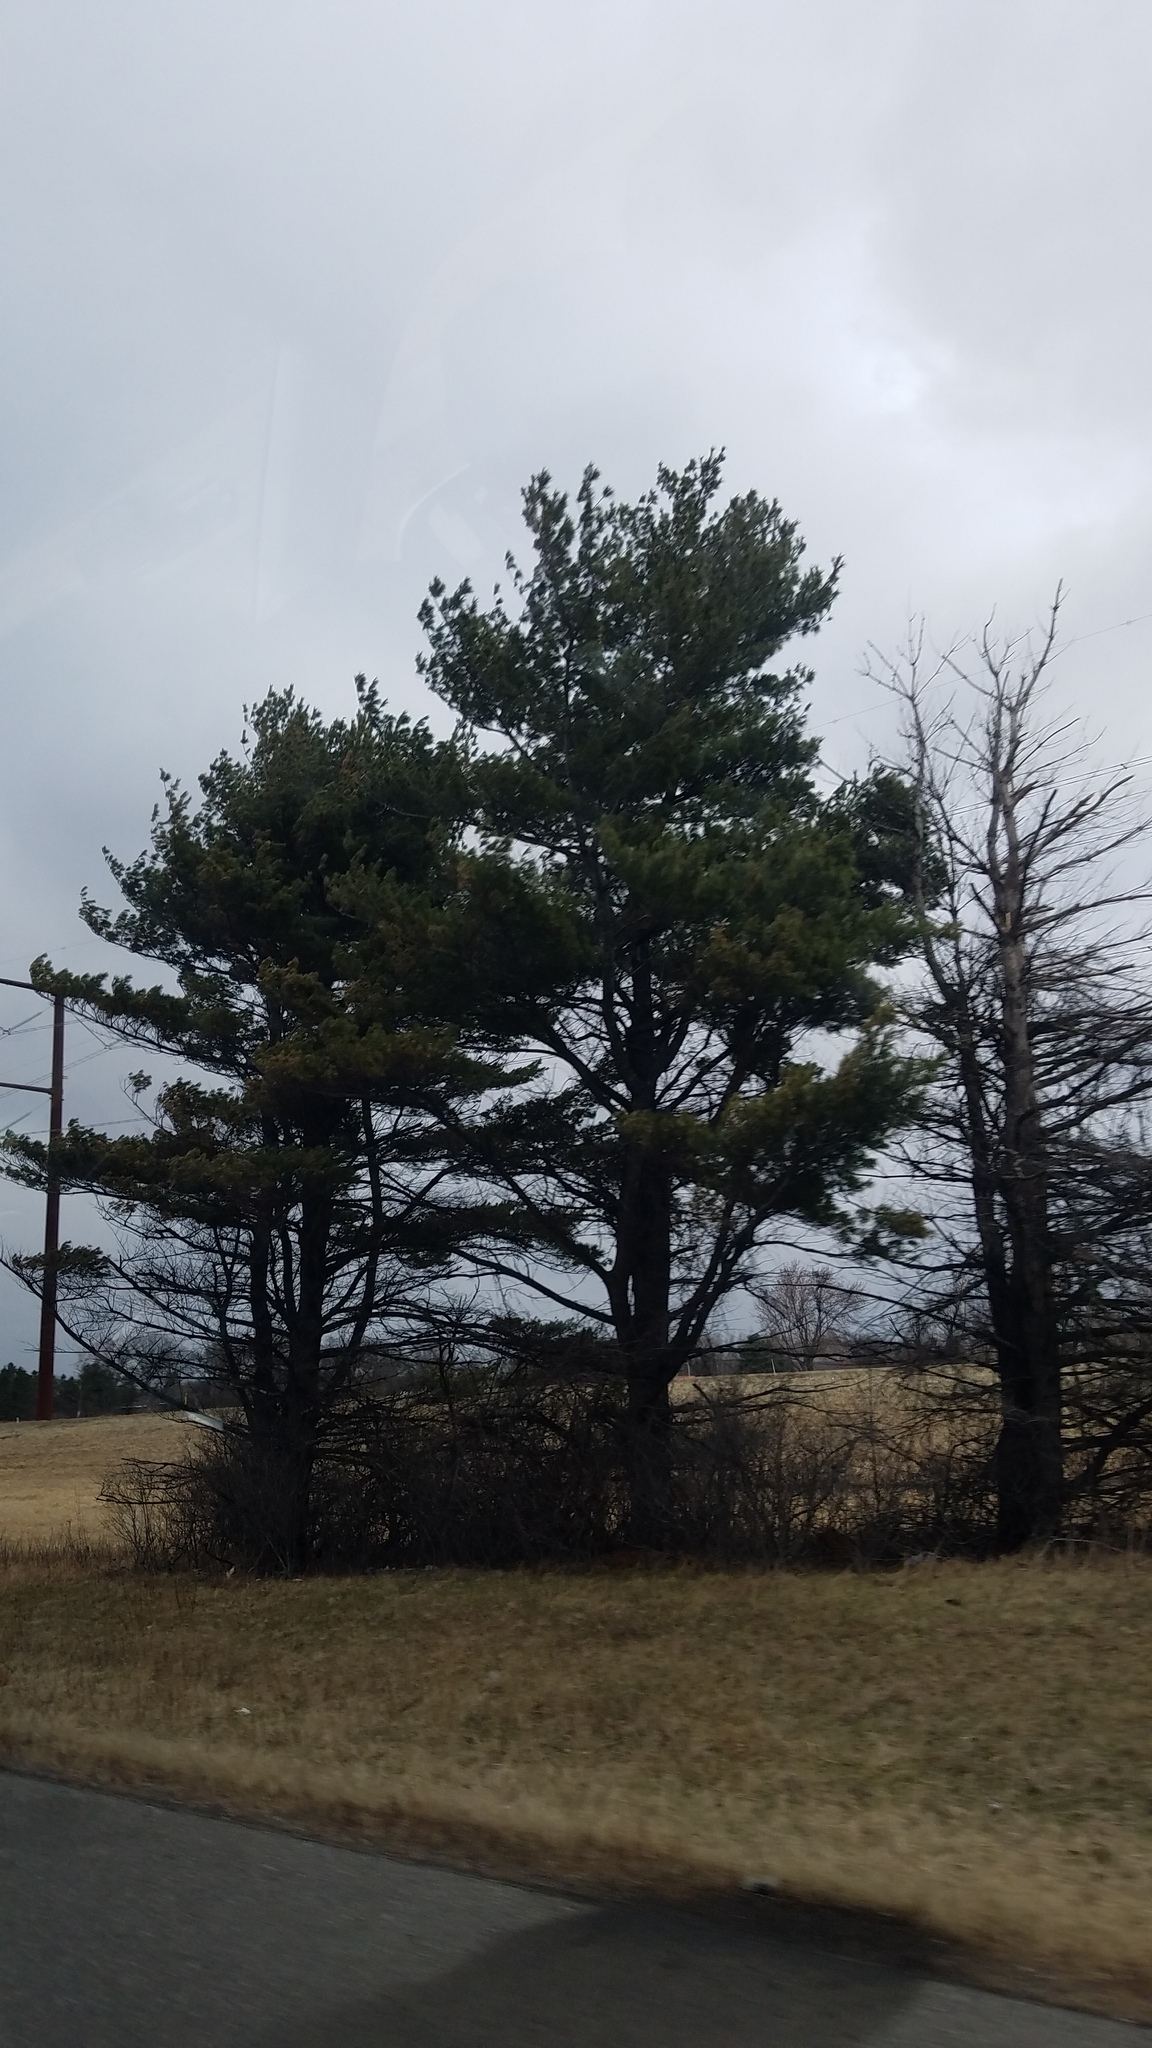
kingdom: Plantae
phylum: Tracheophyta
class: Pinopsida
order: Pinales
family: Pinaceae
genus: Pinus
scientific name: Pinus strobus
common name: Weymouth pine
